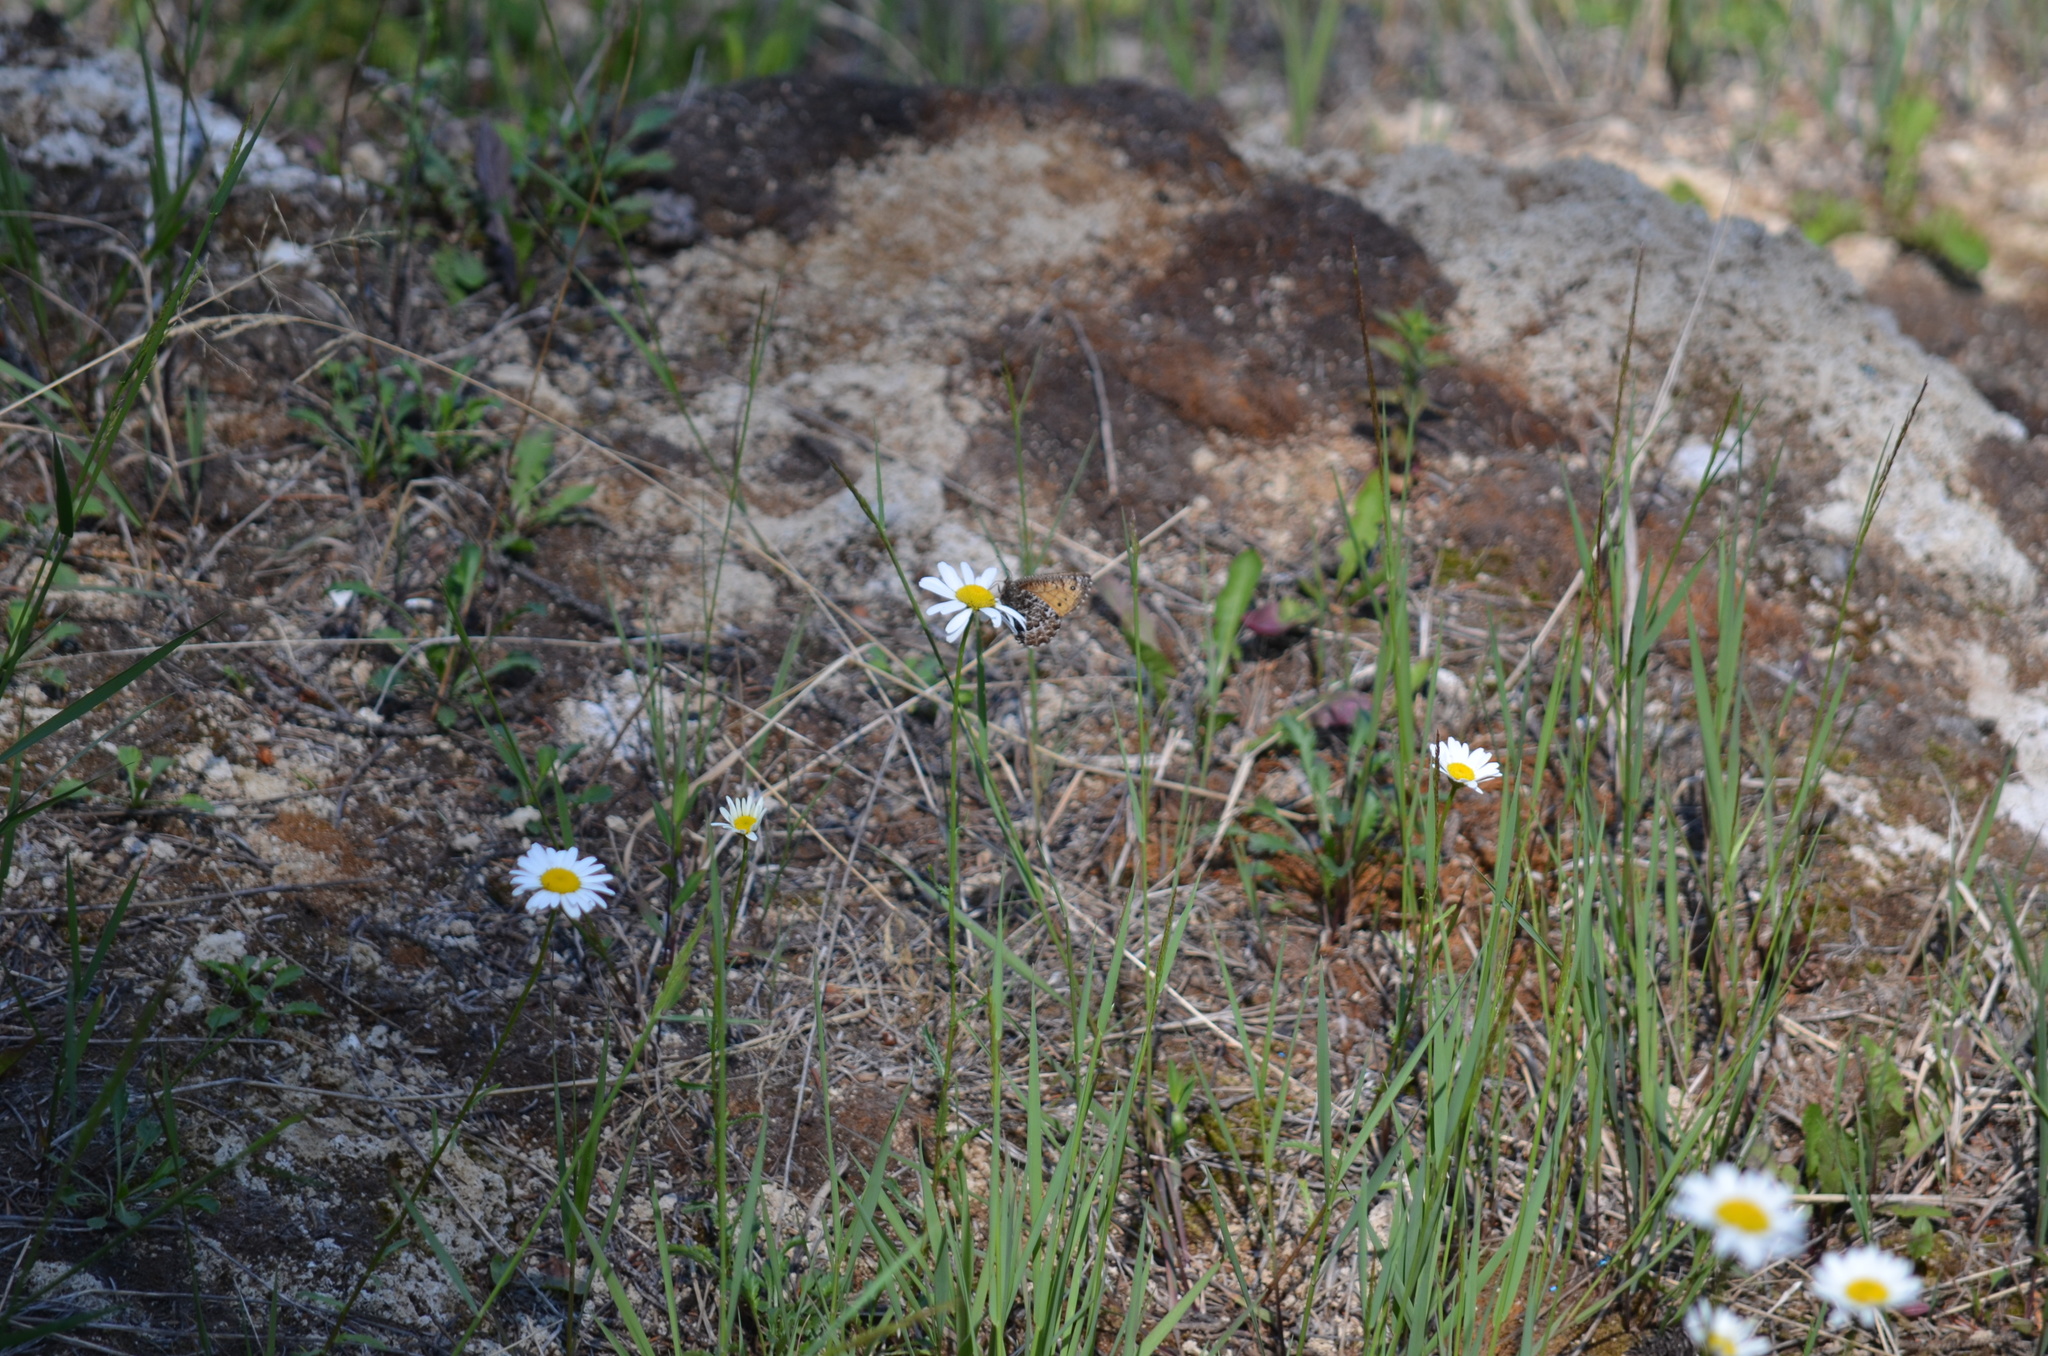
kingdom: Animalia
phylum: Arthropoda
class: Insecta
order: Lepidoptera
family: Nymphalidae
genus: Oeneis
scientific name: Oeneis chryxus
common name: Chryxus arctic
